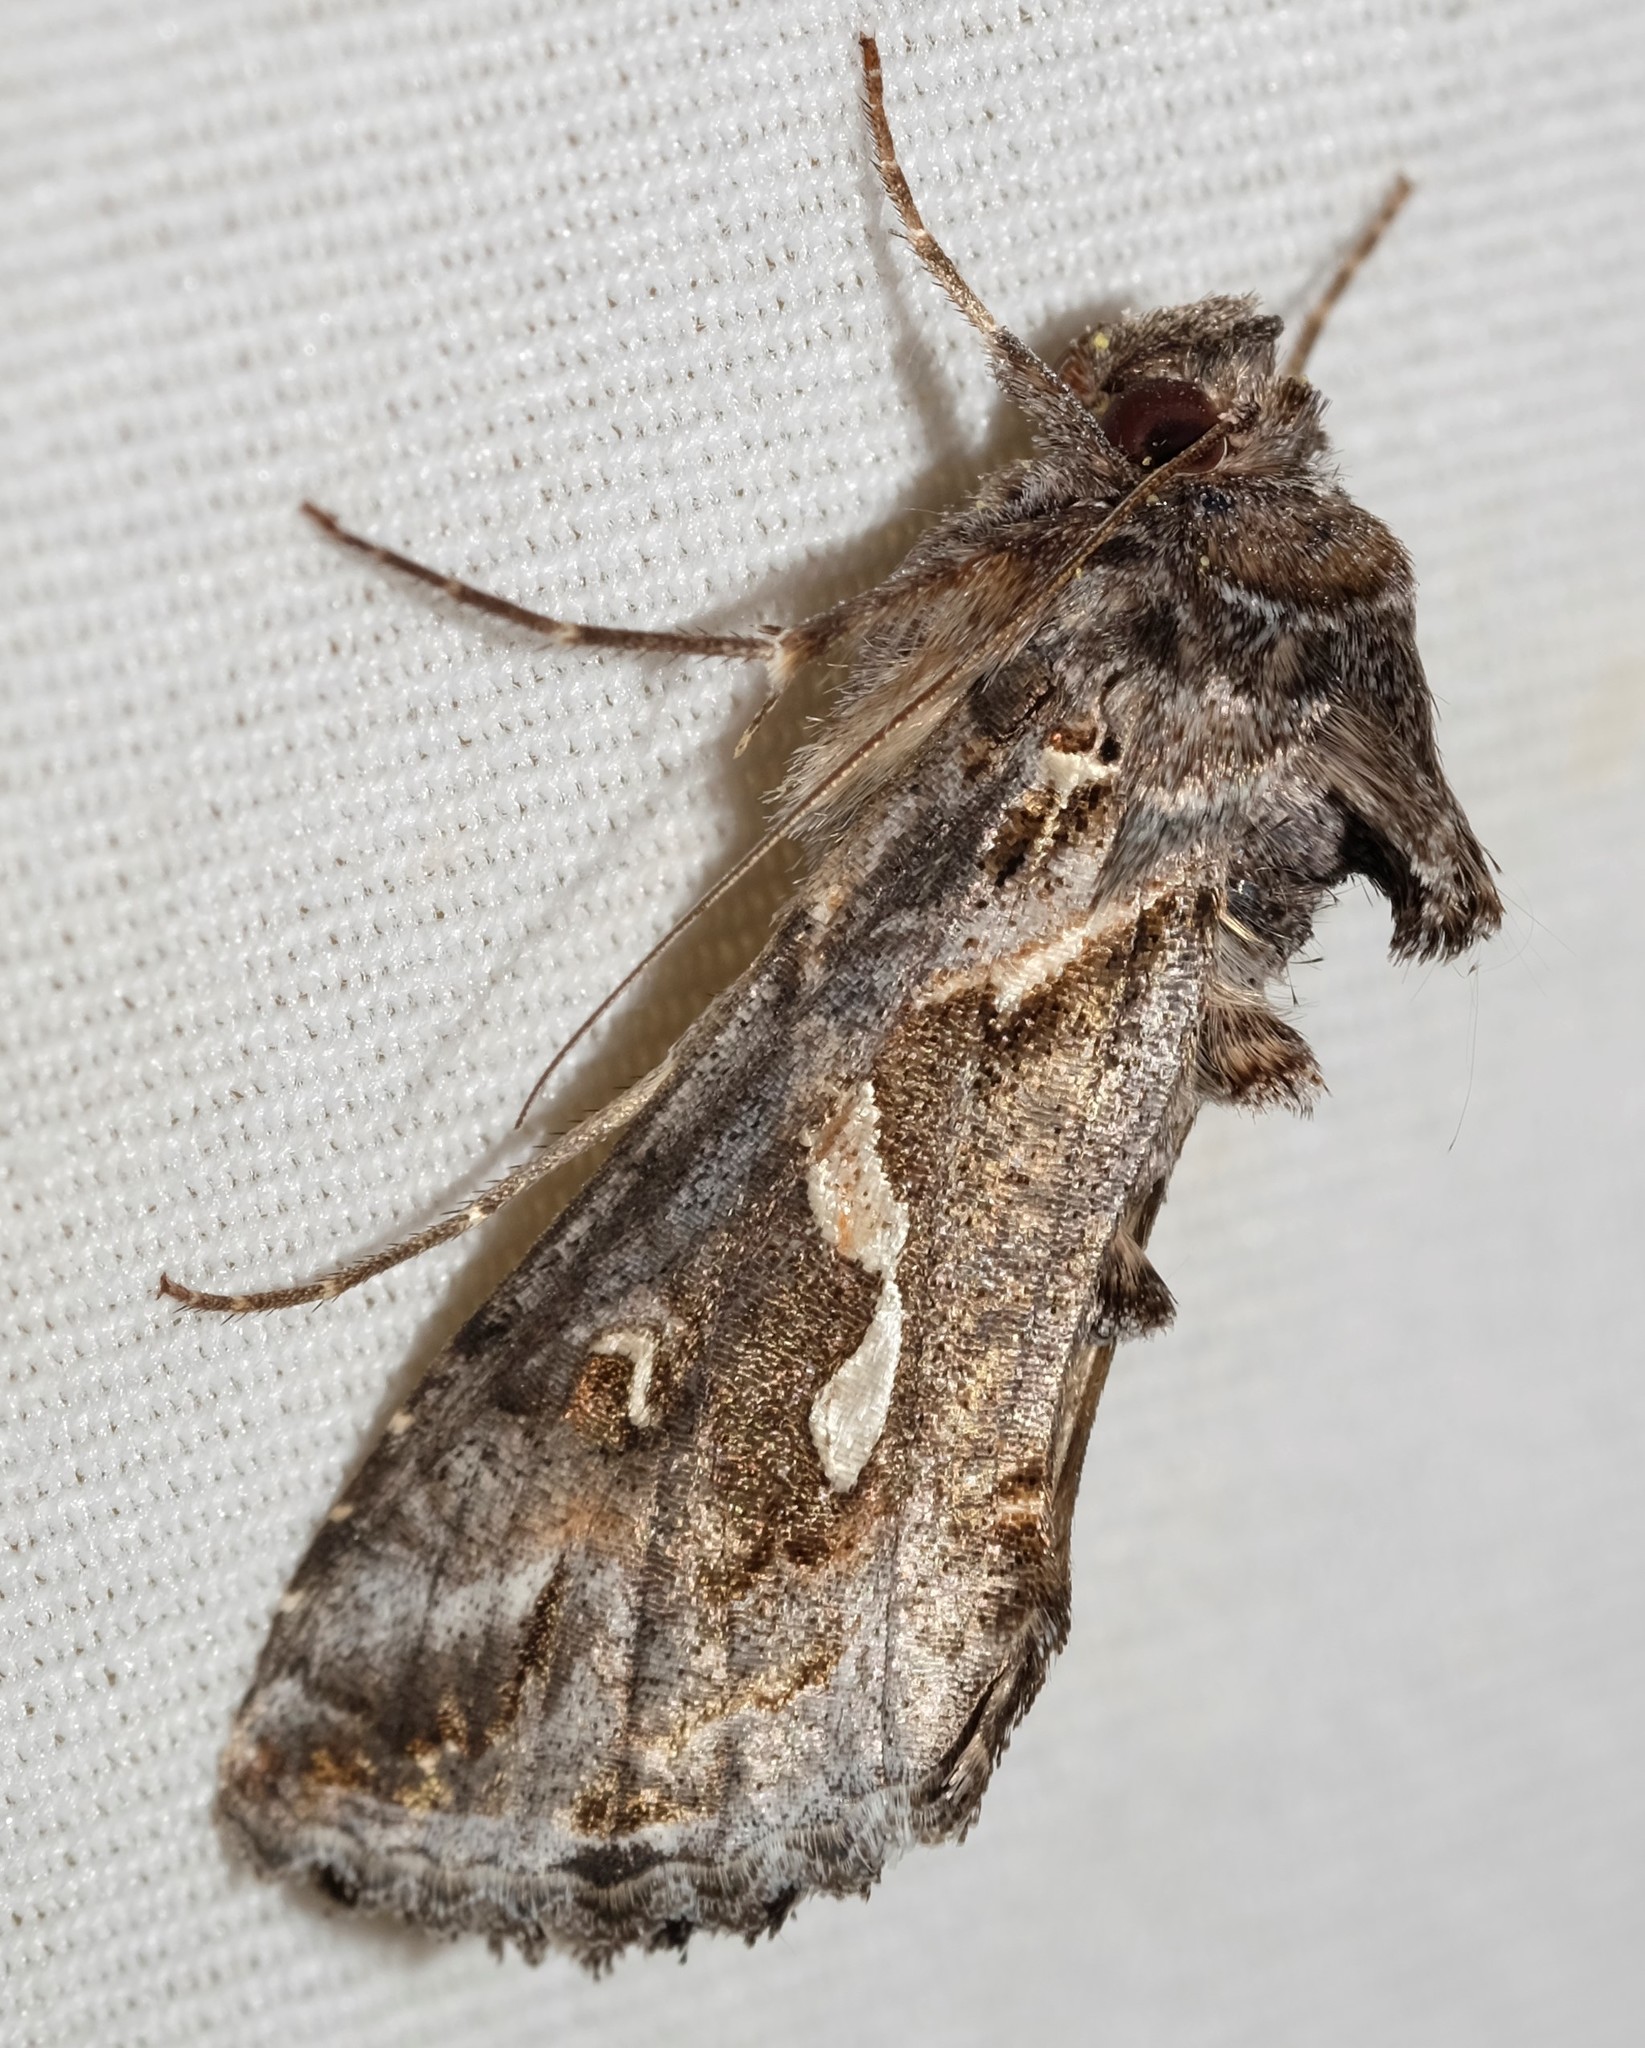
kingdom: Animalia
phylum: Arthropoda
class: Insecta
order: Lepidoptera
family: Noctuidae
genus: Chrysodeixis
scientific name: Chrysodeixis argentifera
